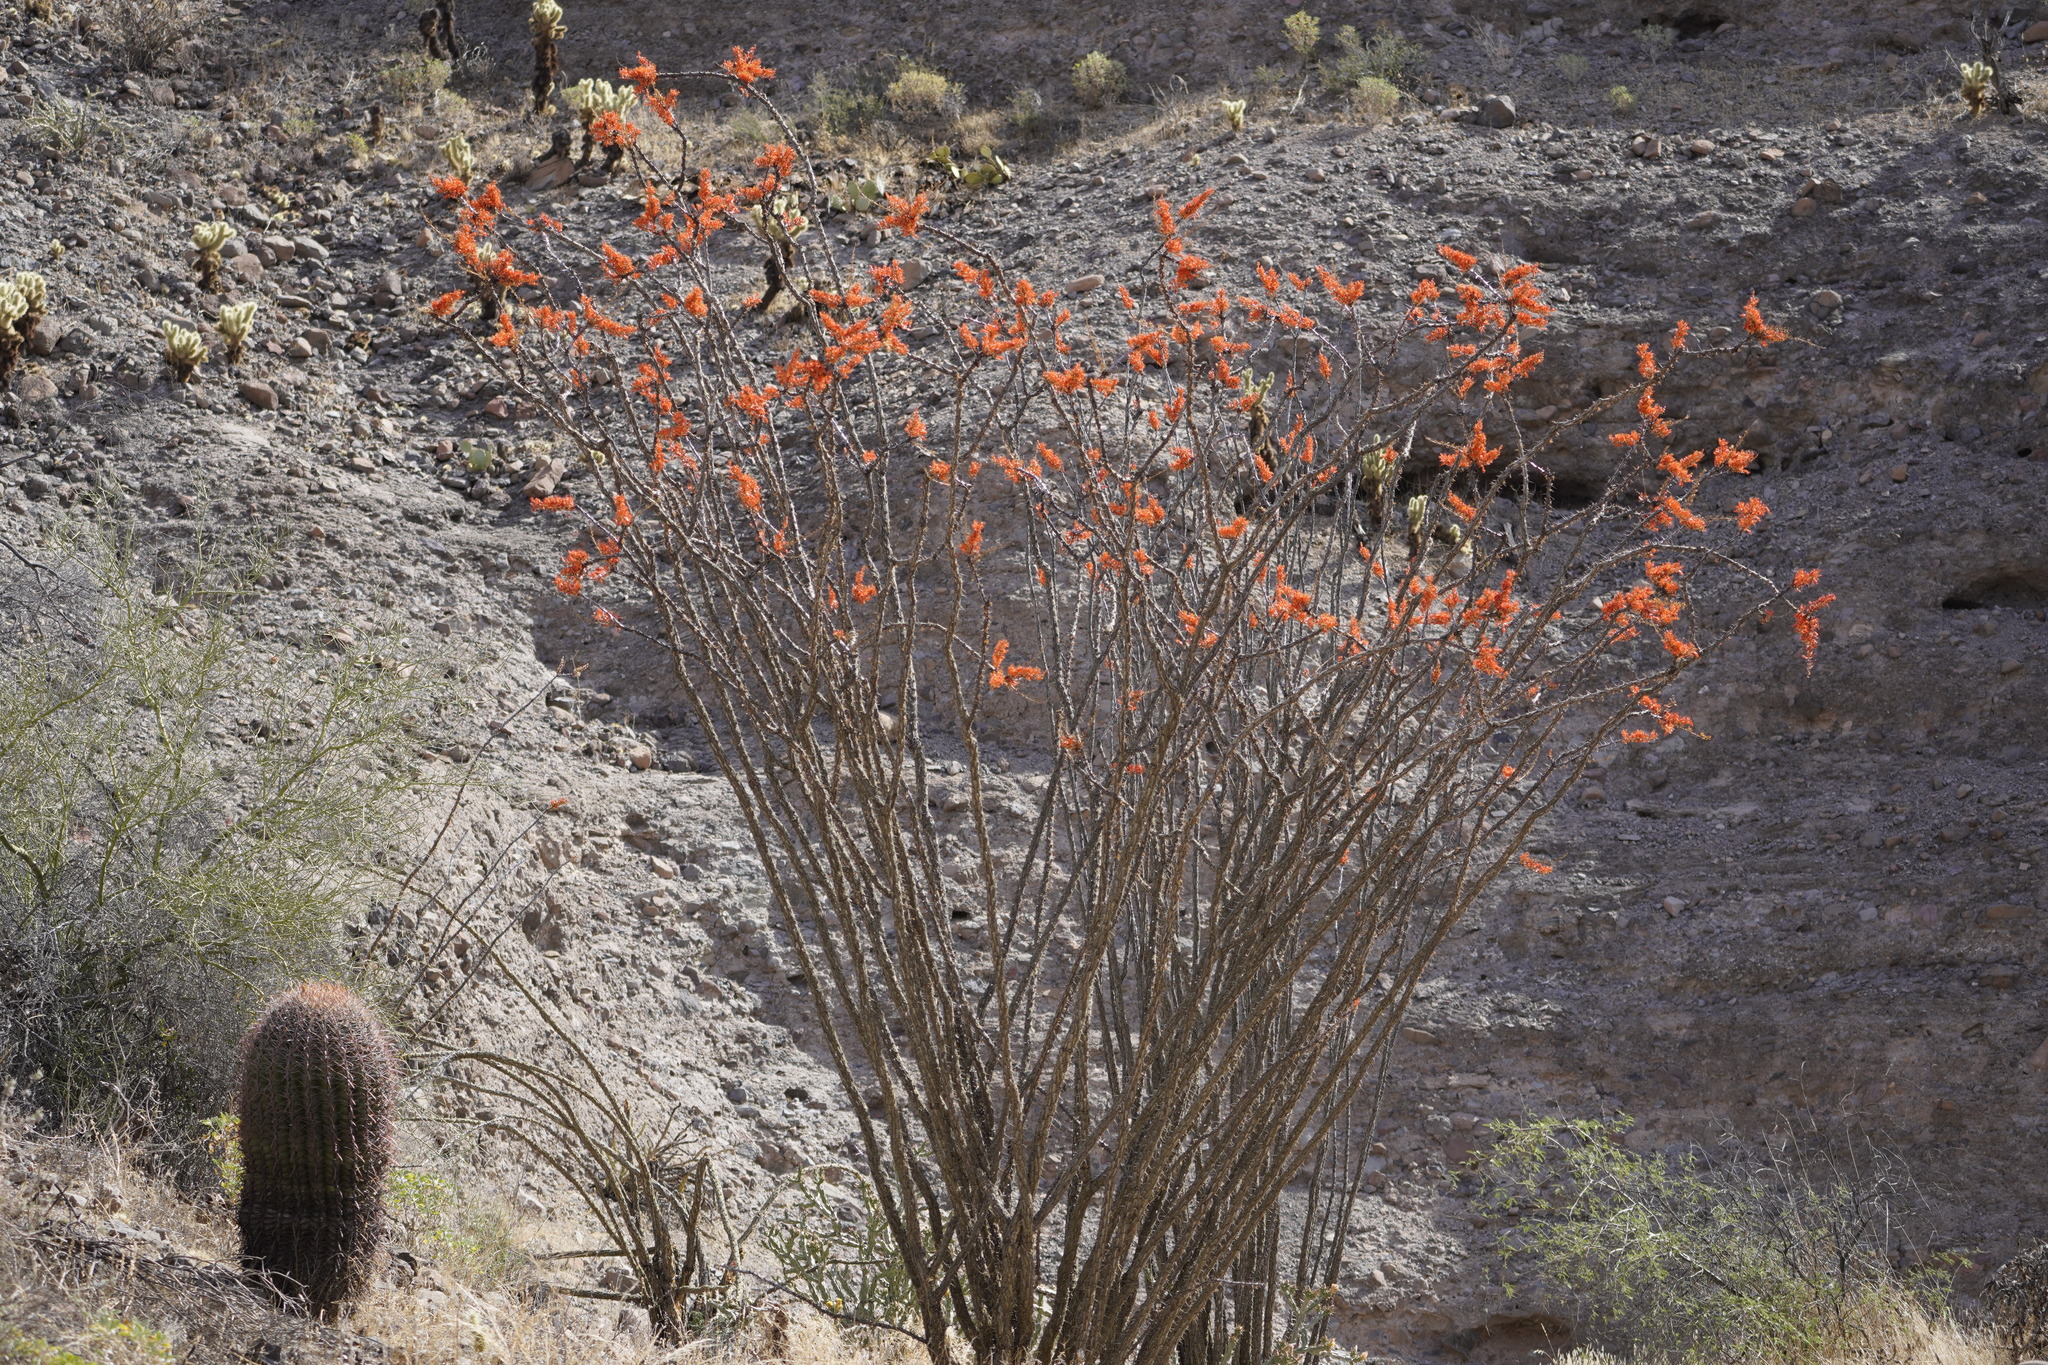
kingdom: Plantae
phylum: Tracheophyta
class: Magnoliopsida
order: Ericales
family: Fouquieriaceae
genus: Fouquieria
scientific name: Fouquieria splendens
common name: Vine-cactus
